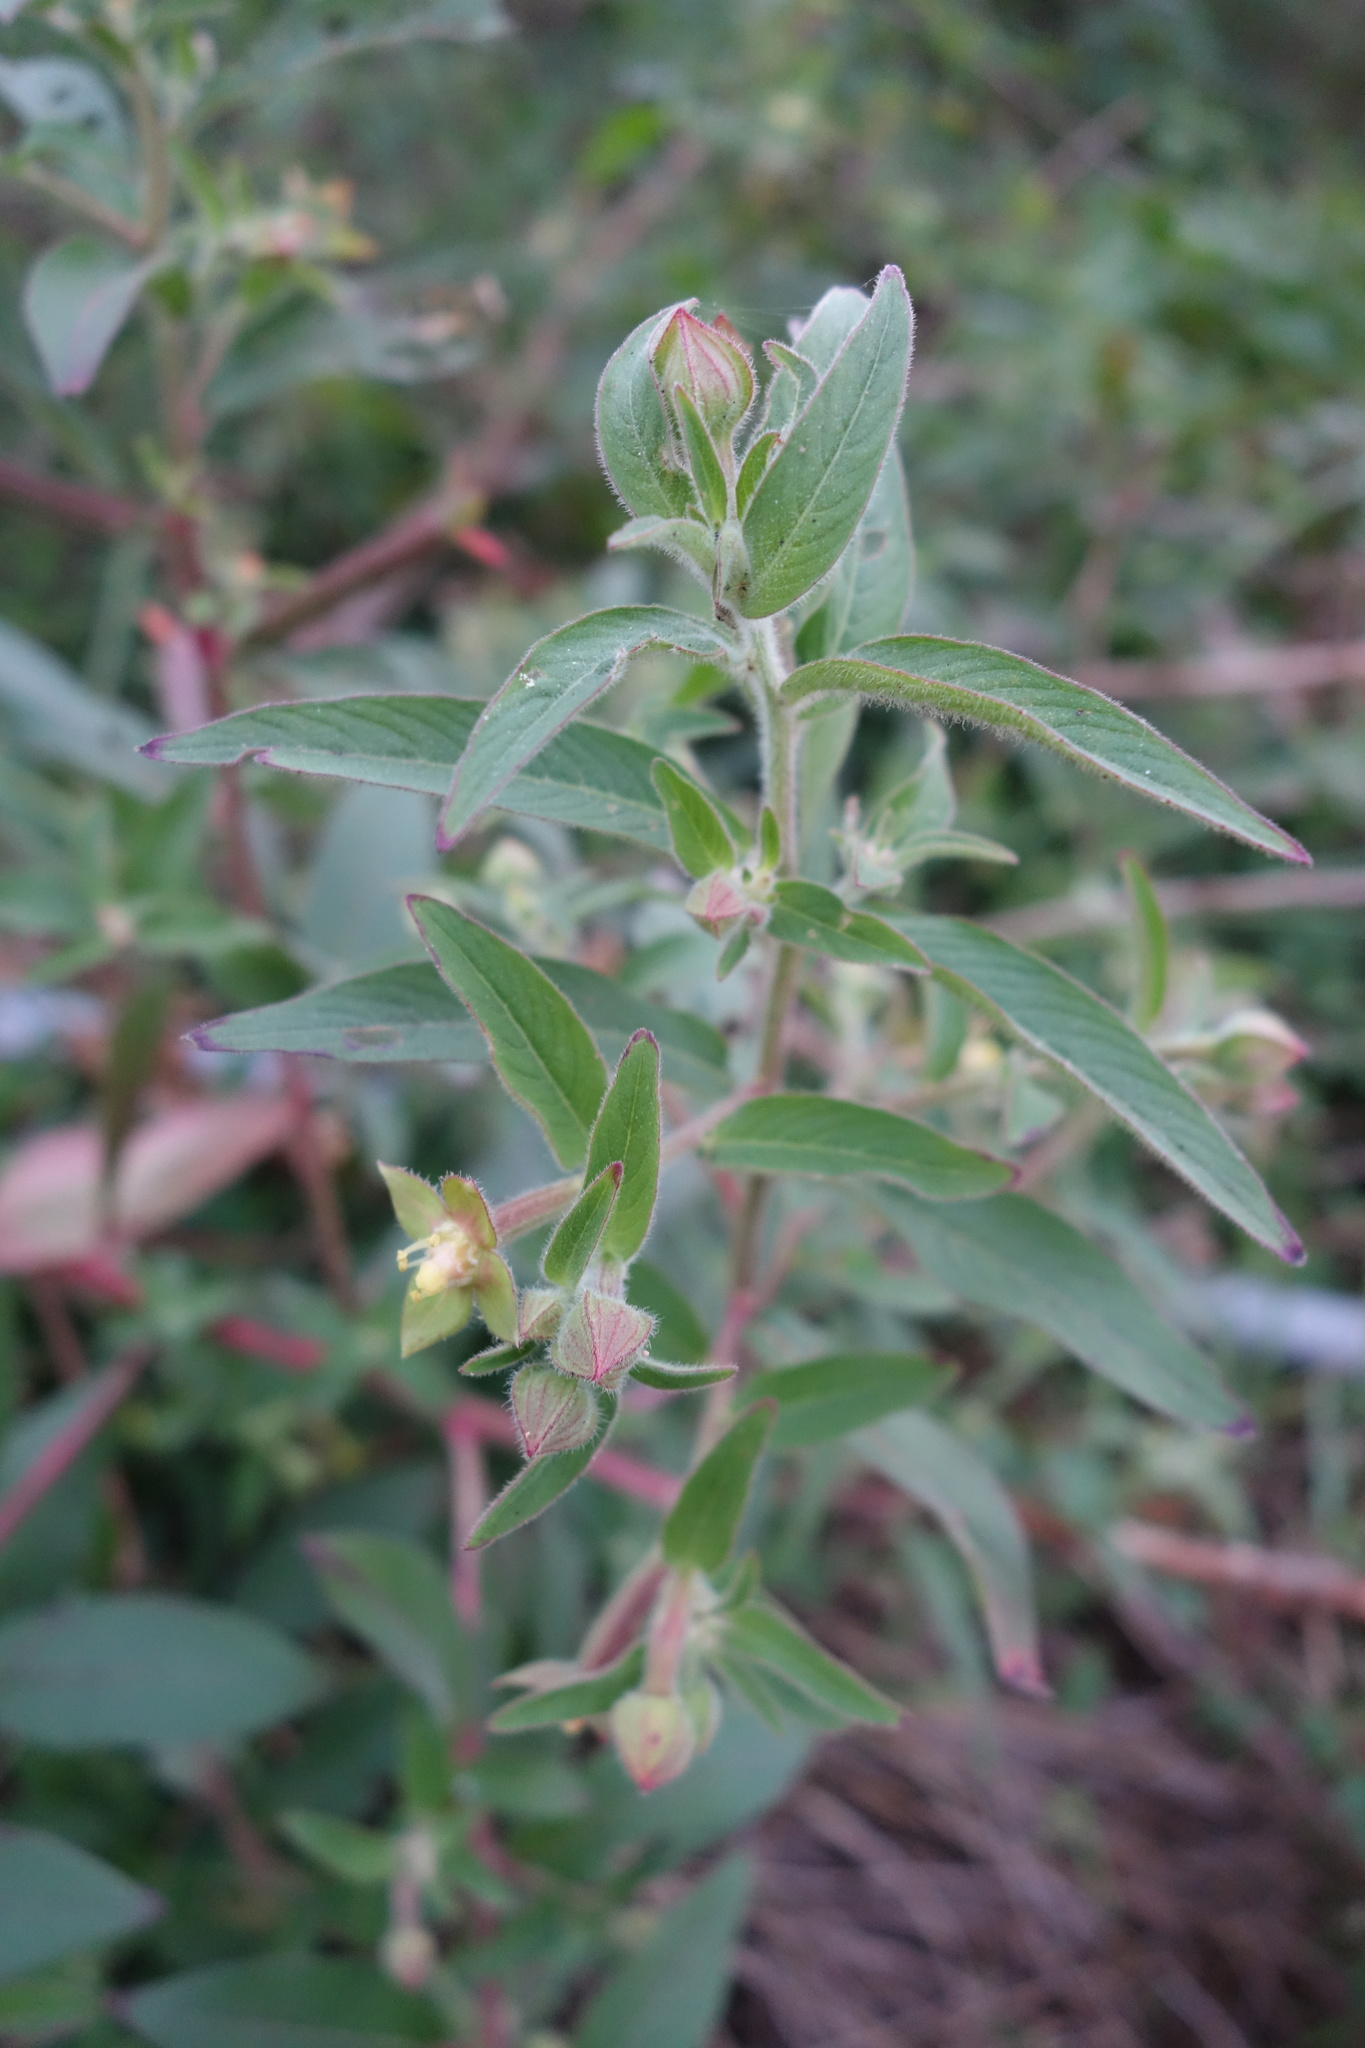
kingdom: Plantae
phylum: Tracheophyta
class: Magnoliopsida
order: Myrtales
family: Onagraceae
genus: Ludwigia
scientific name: Ludwigia octovalvis
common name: Water-primrose
